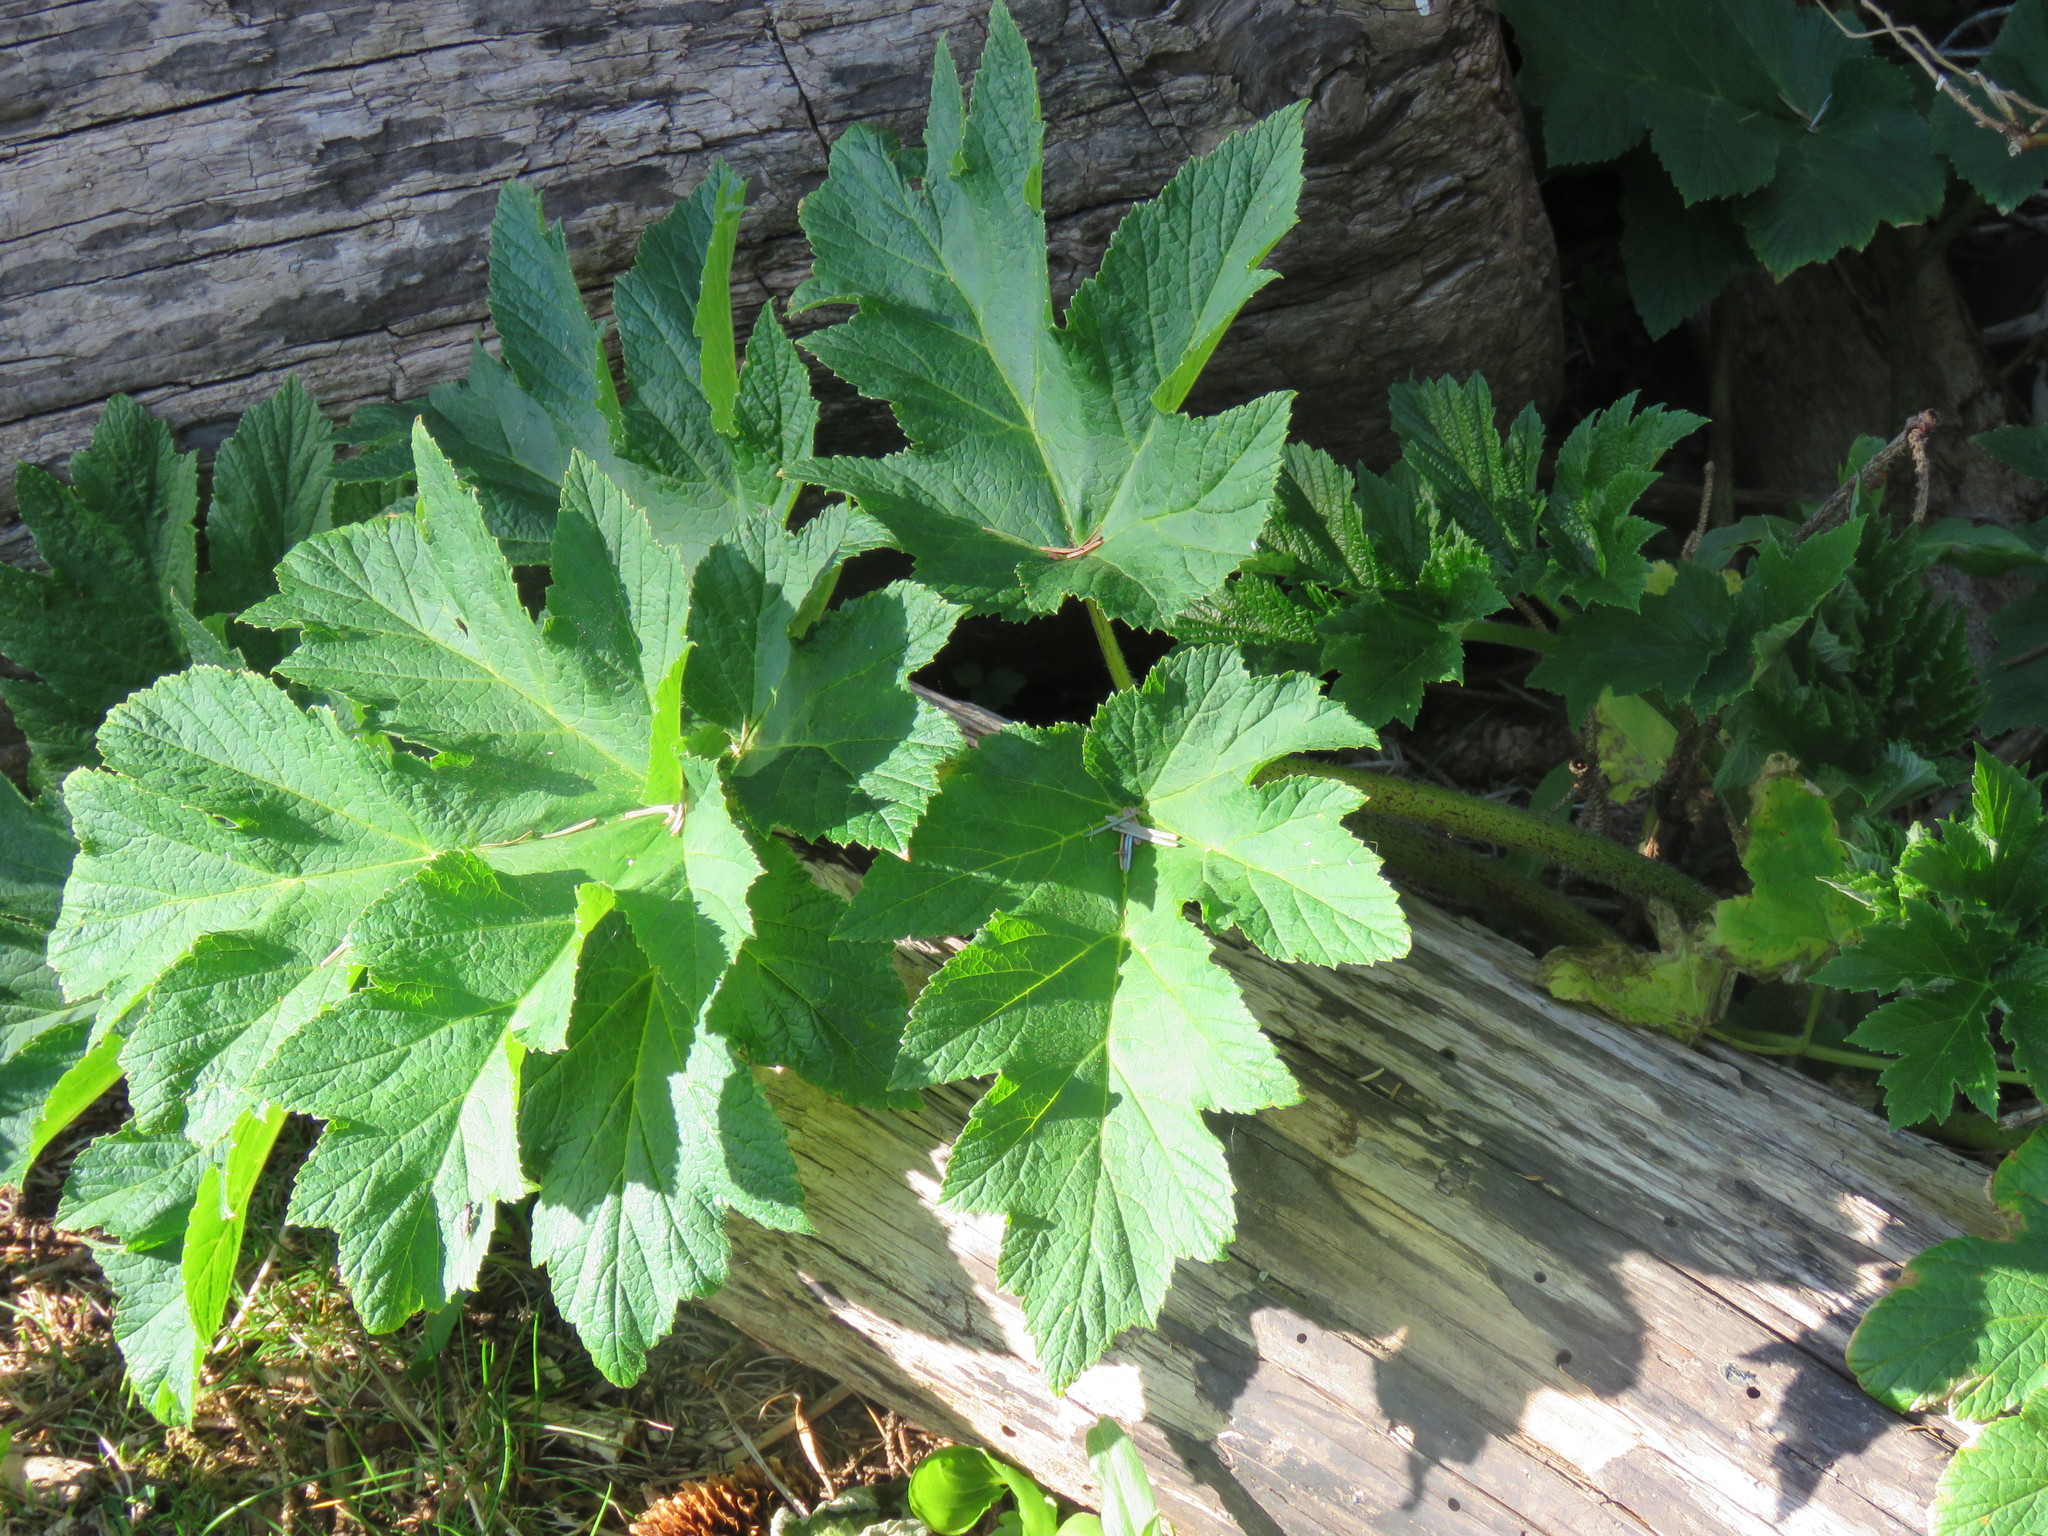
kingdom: Plantae
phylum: Tracheophyta
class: Magnoliopsida
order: Apiales
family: Apiaceae
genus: Heracleum
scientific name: Heracleum maximum
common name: American cow parsnip
